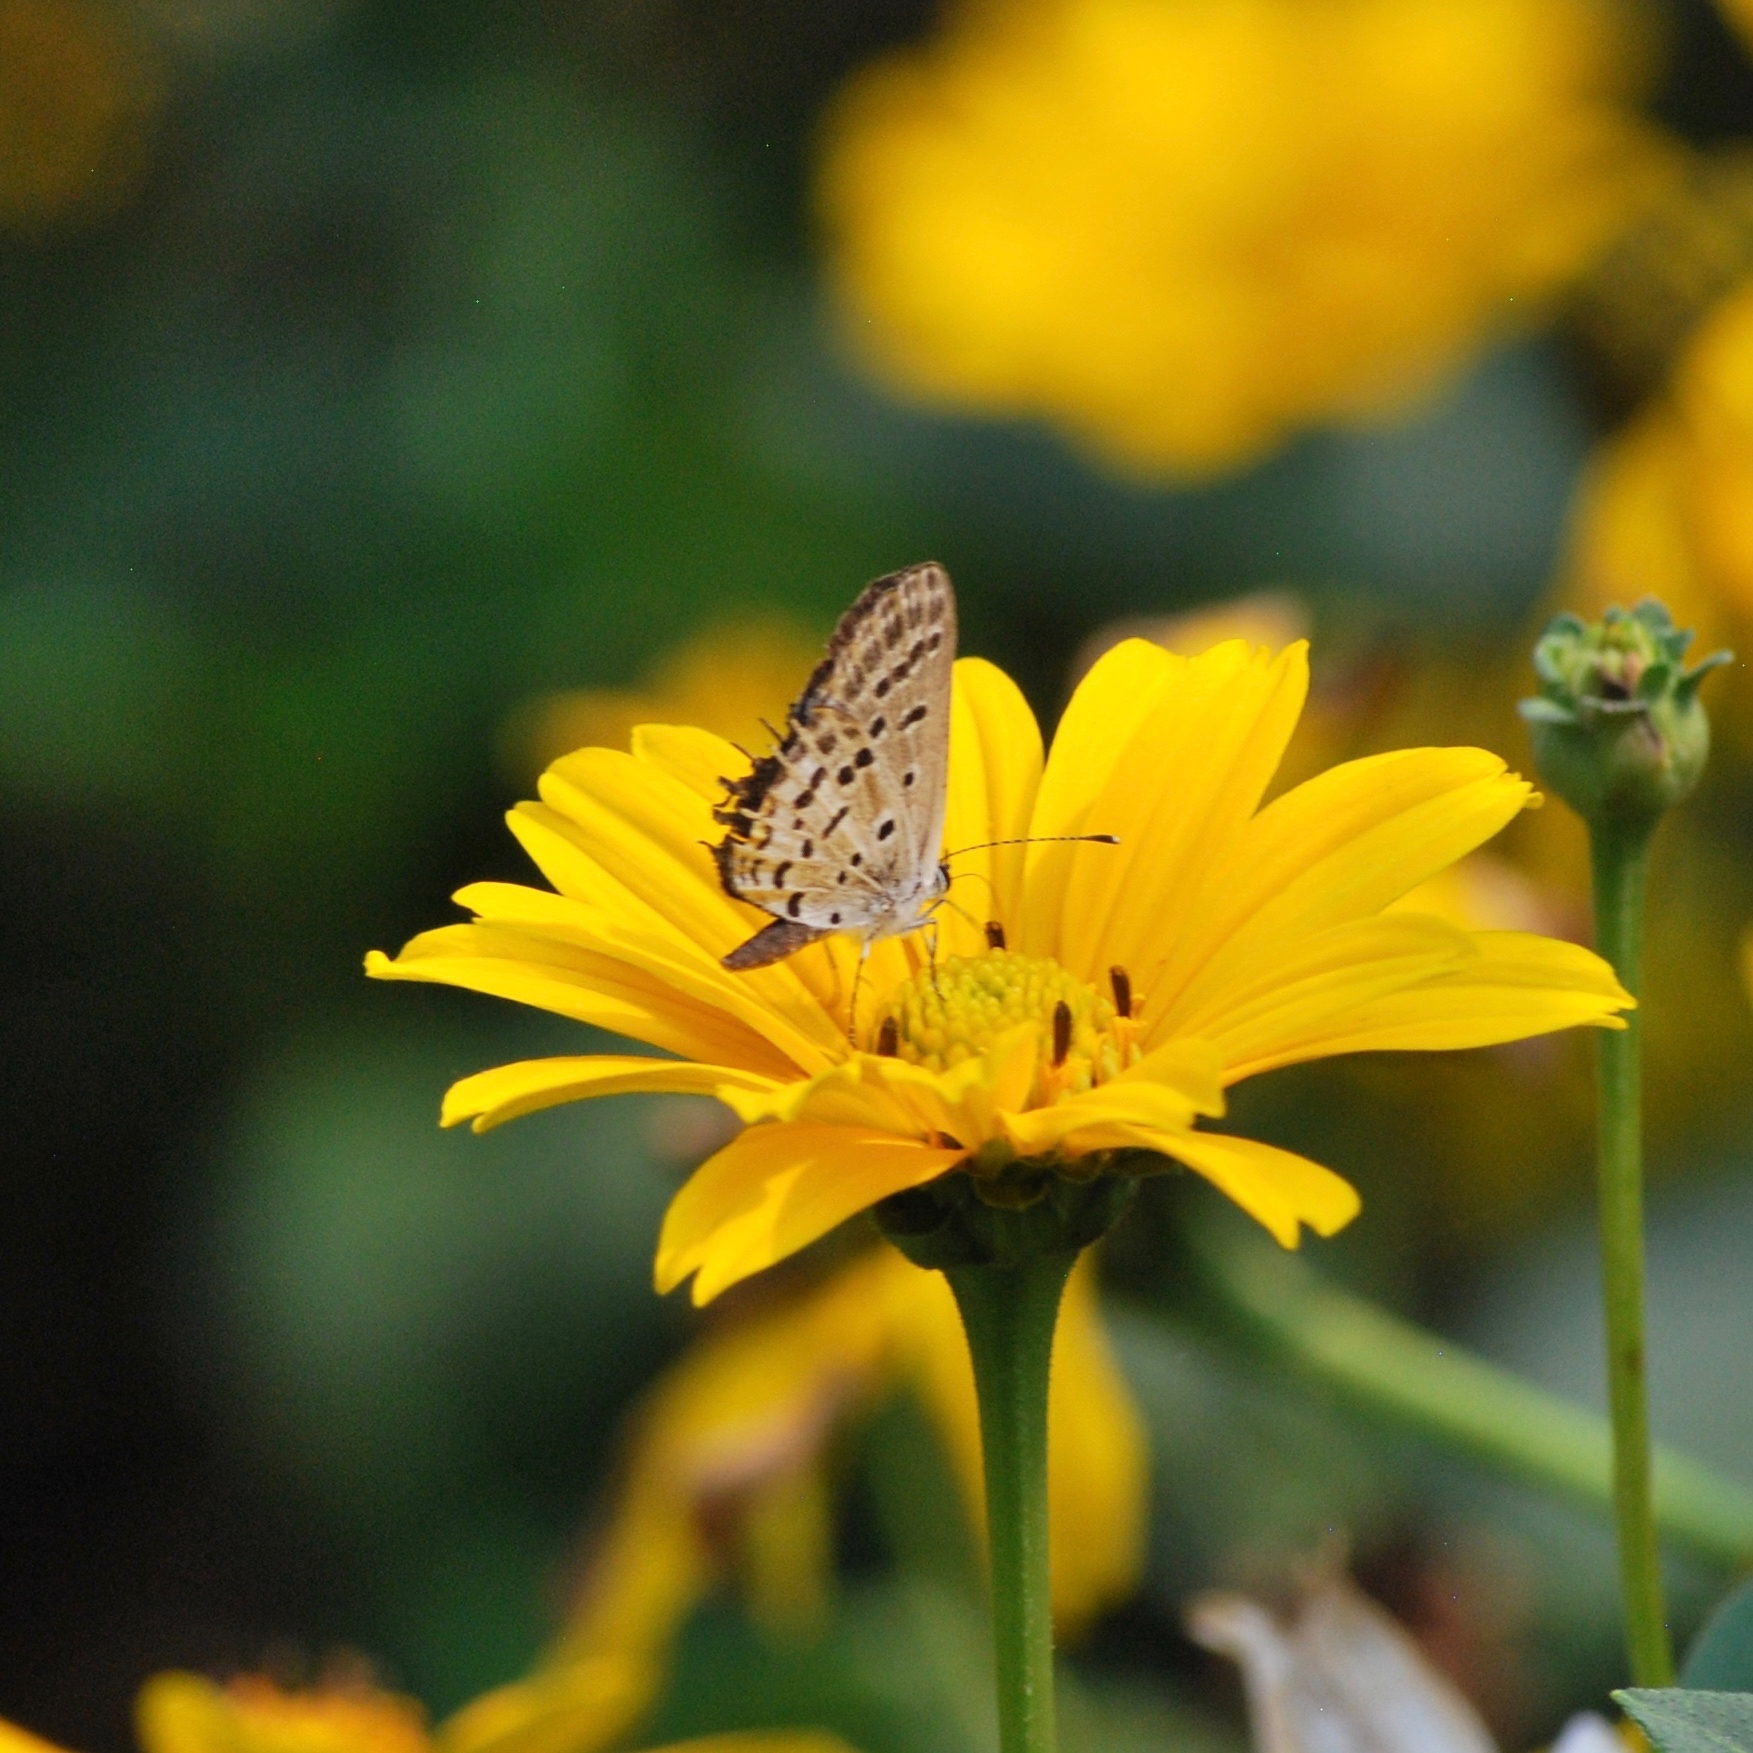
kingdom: Animalia
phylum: Arthropoda
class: Insecta
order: Lepidoptera
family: Lycaenidae
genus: Tongeia
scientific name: Tongeia filicaudis
